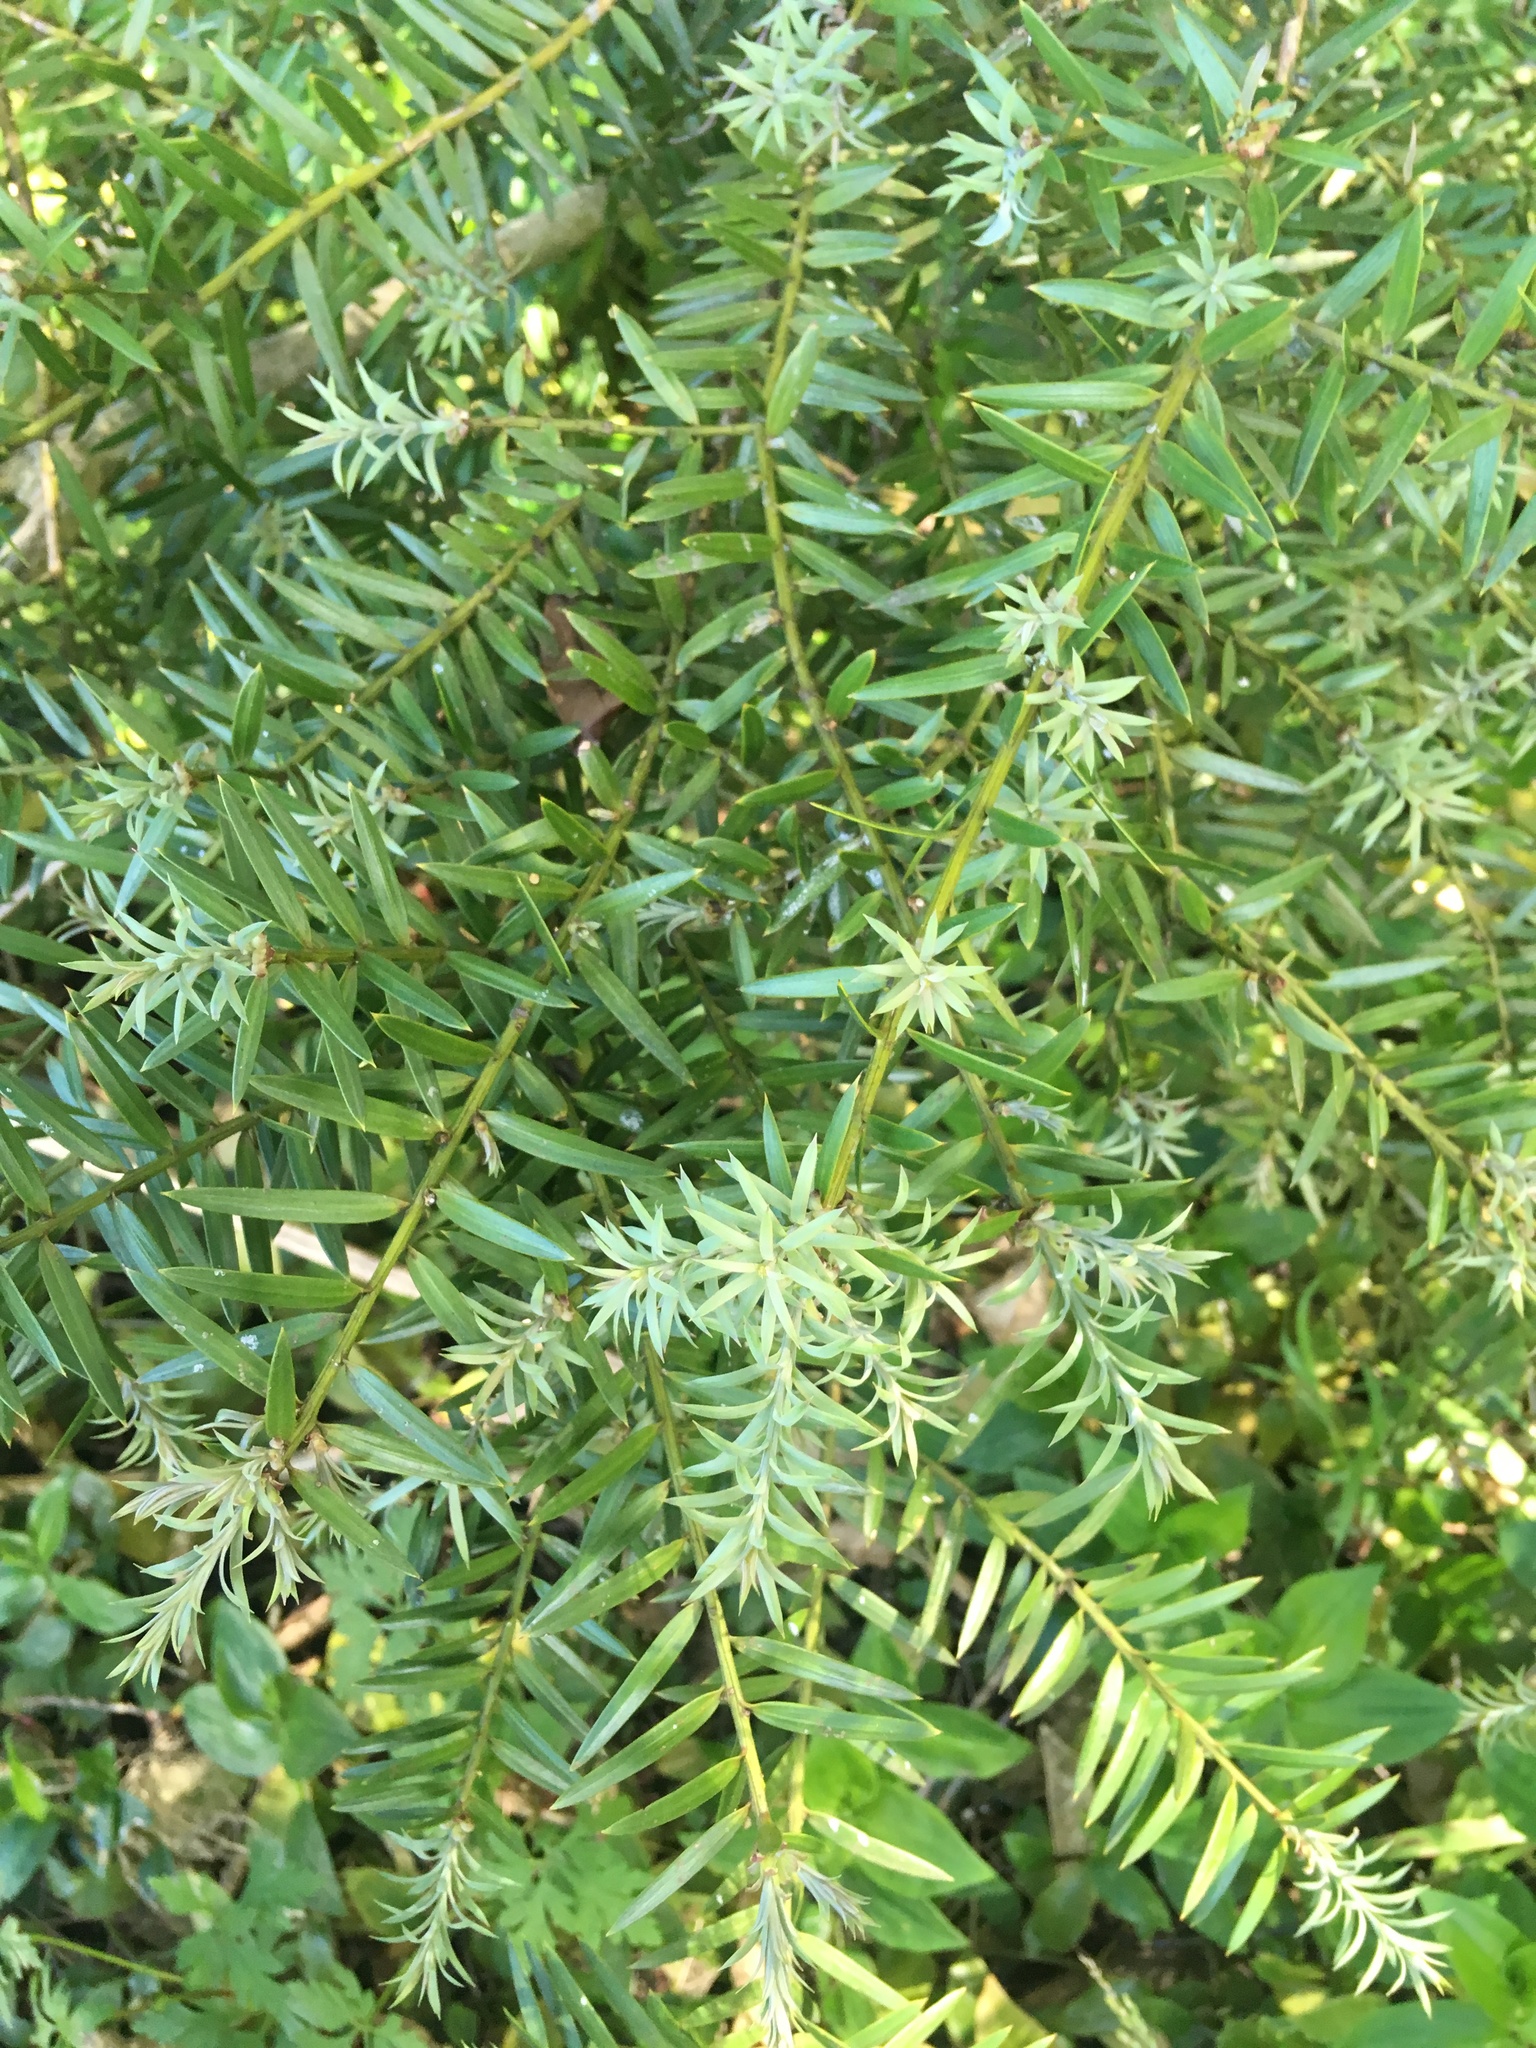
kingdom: Plantae
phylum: Tracheophyta
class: Pinopsida
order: Pinales
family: Podocarpaceae
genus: Podocarpus
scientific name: Podocarpus totara
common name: Totara
